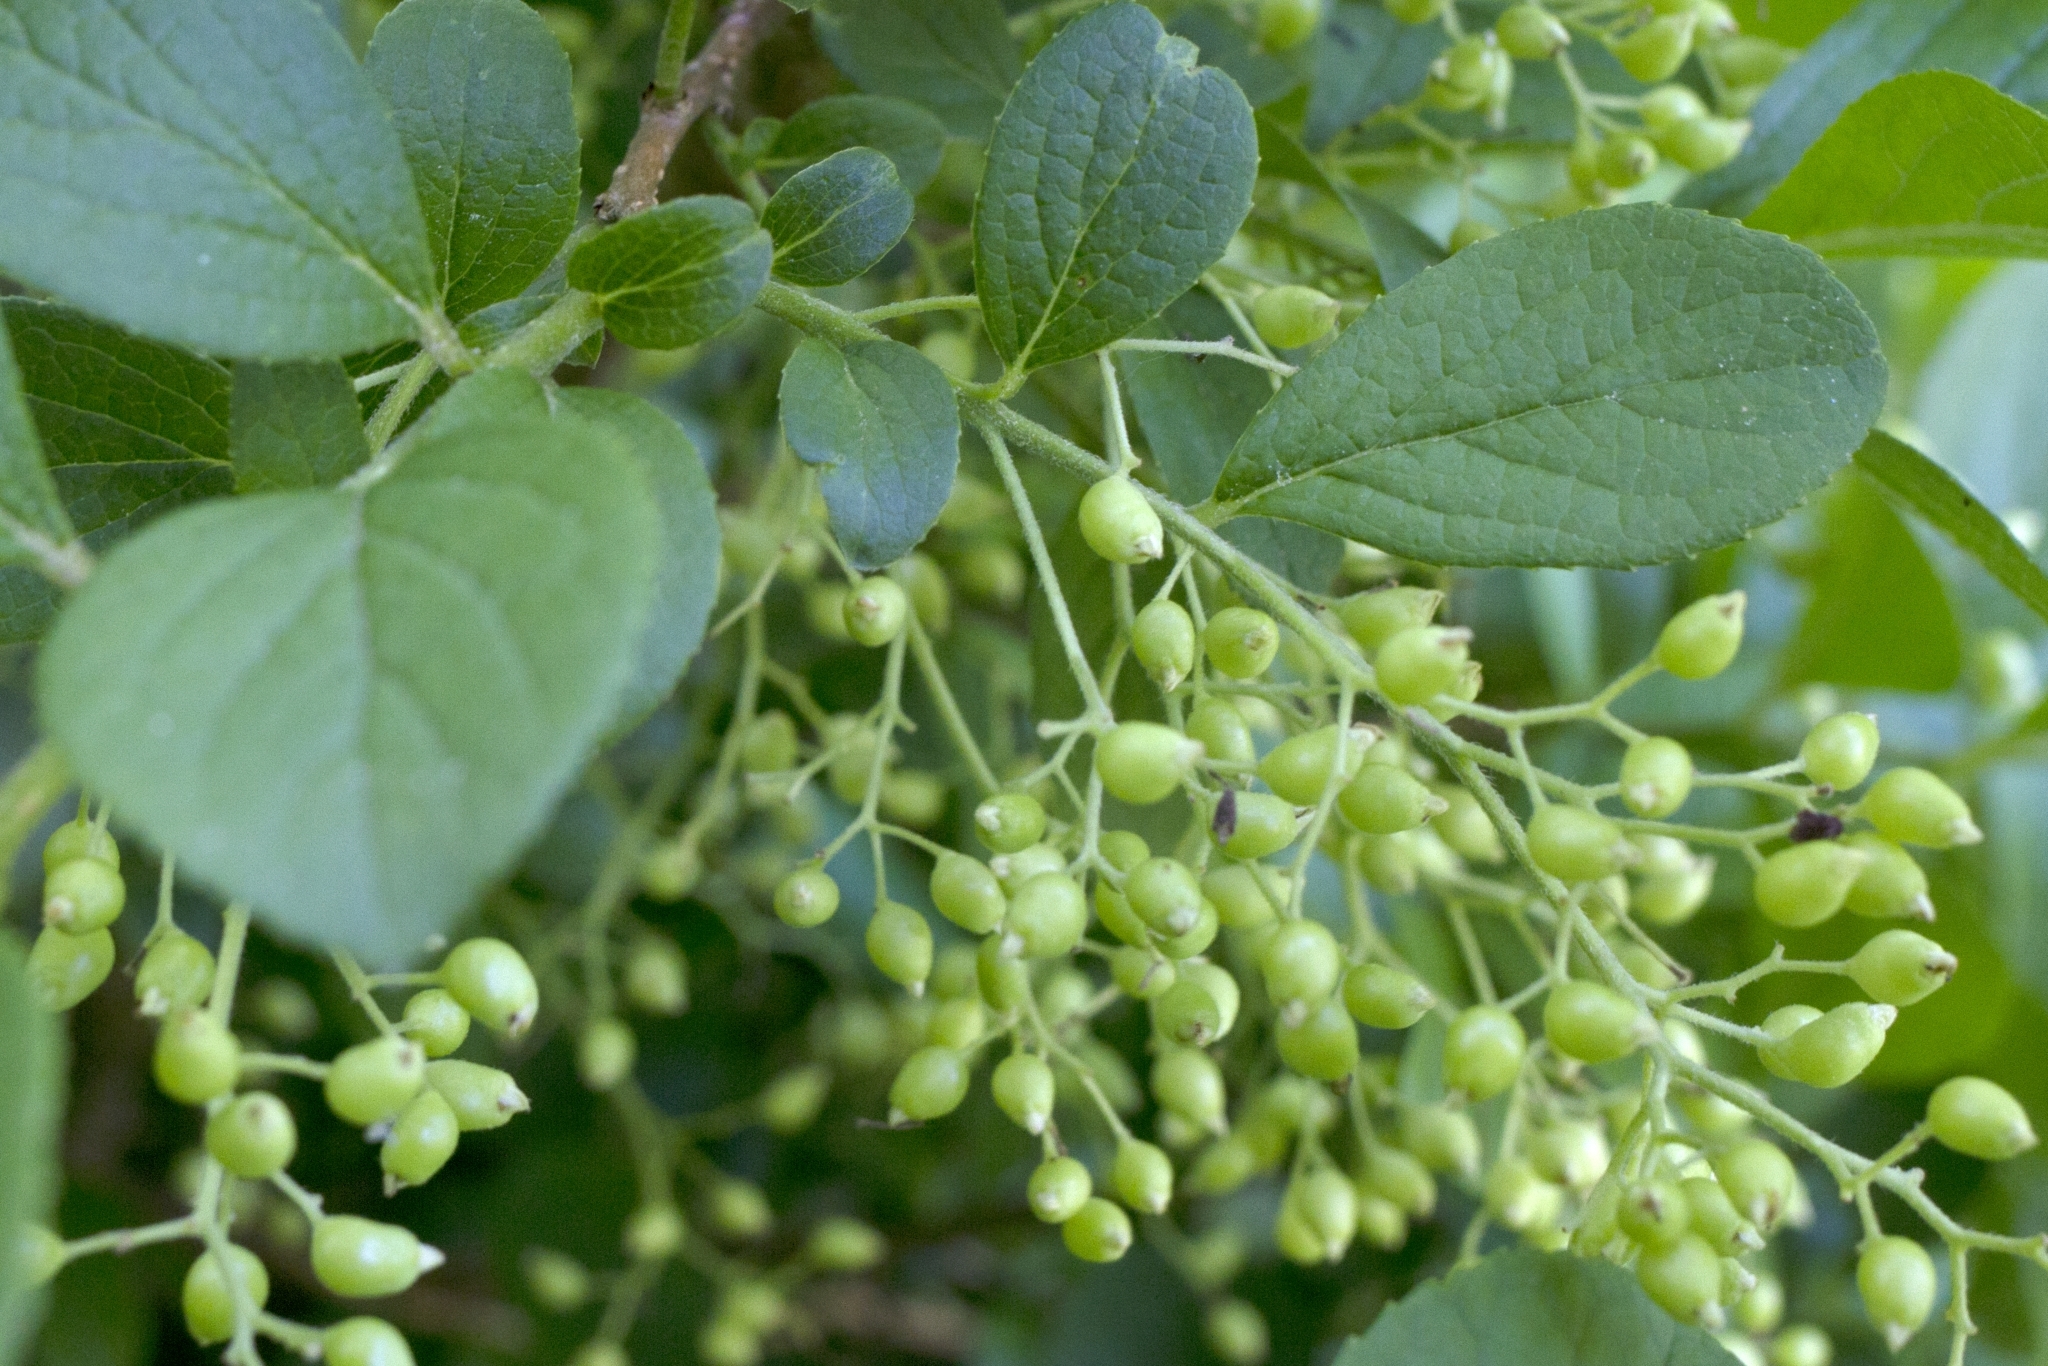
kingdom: Plantae
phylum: Tracheophyta
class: Magnoliopsida
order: Ericales
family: Symplocaceae
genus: Symplocos
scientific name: Symplocos paniculata
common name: Sapphire-berry
